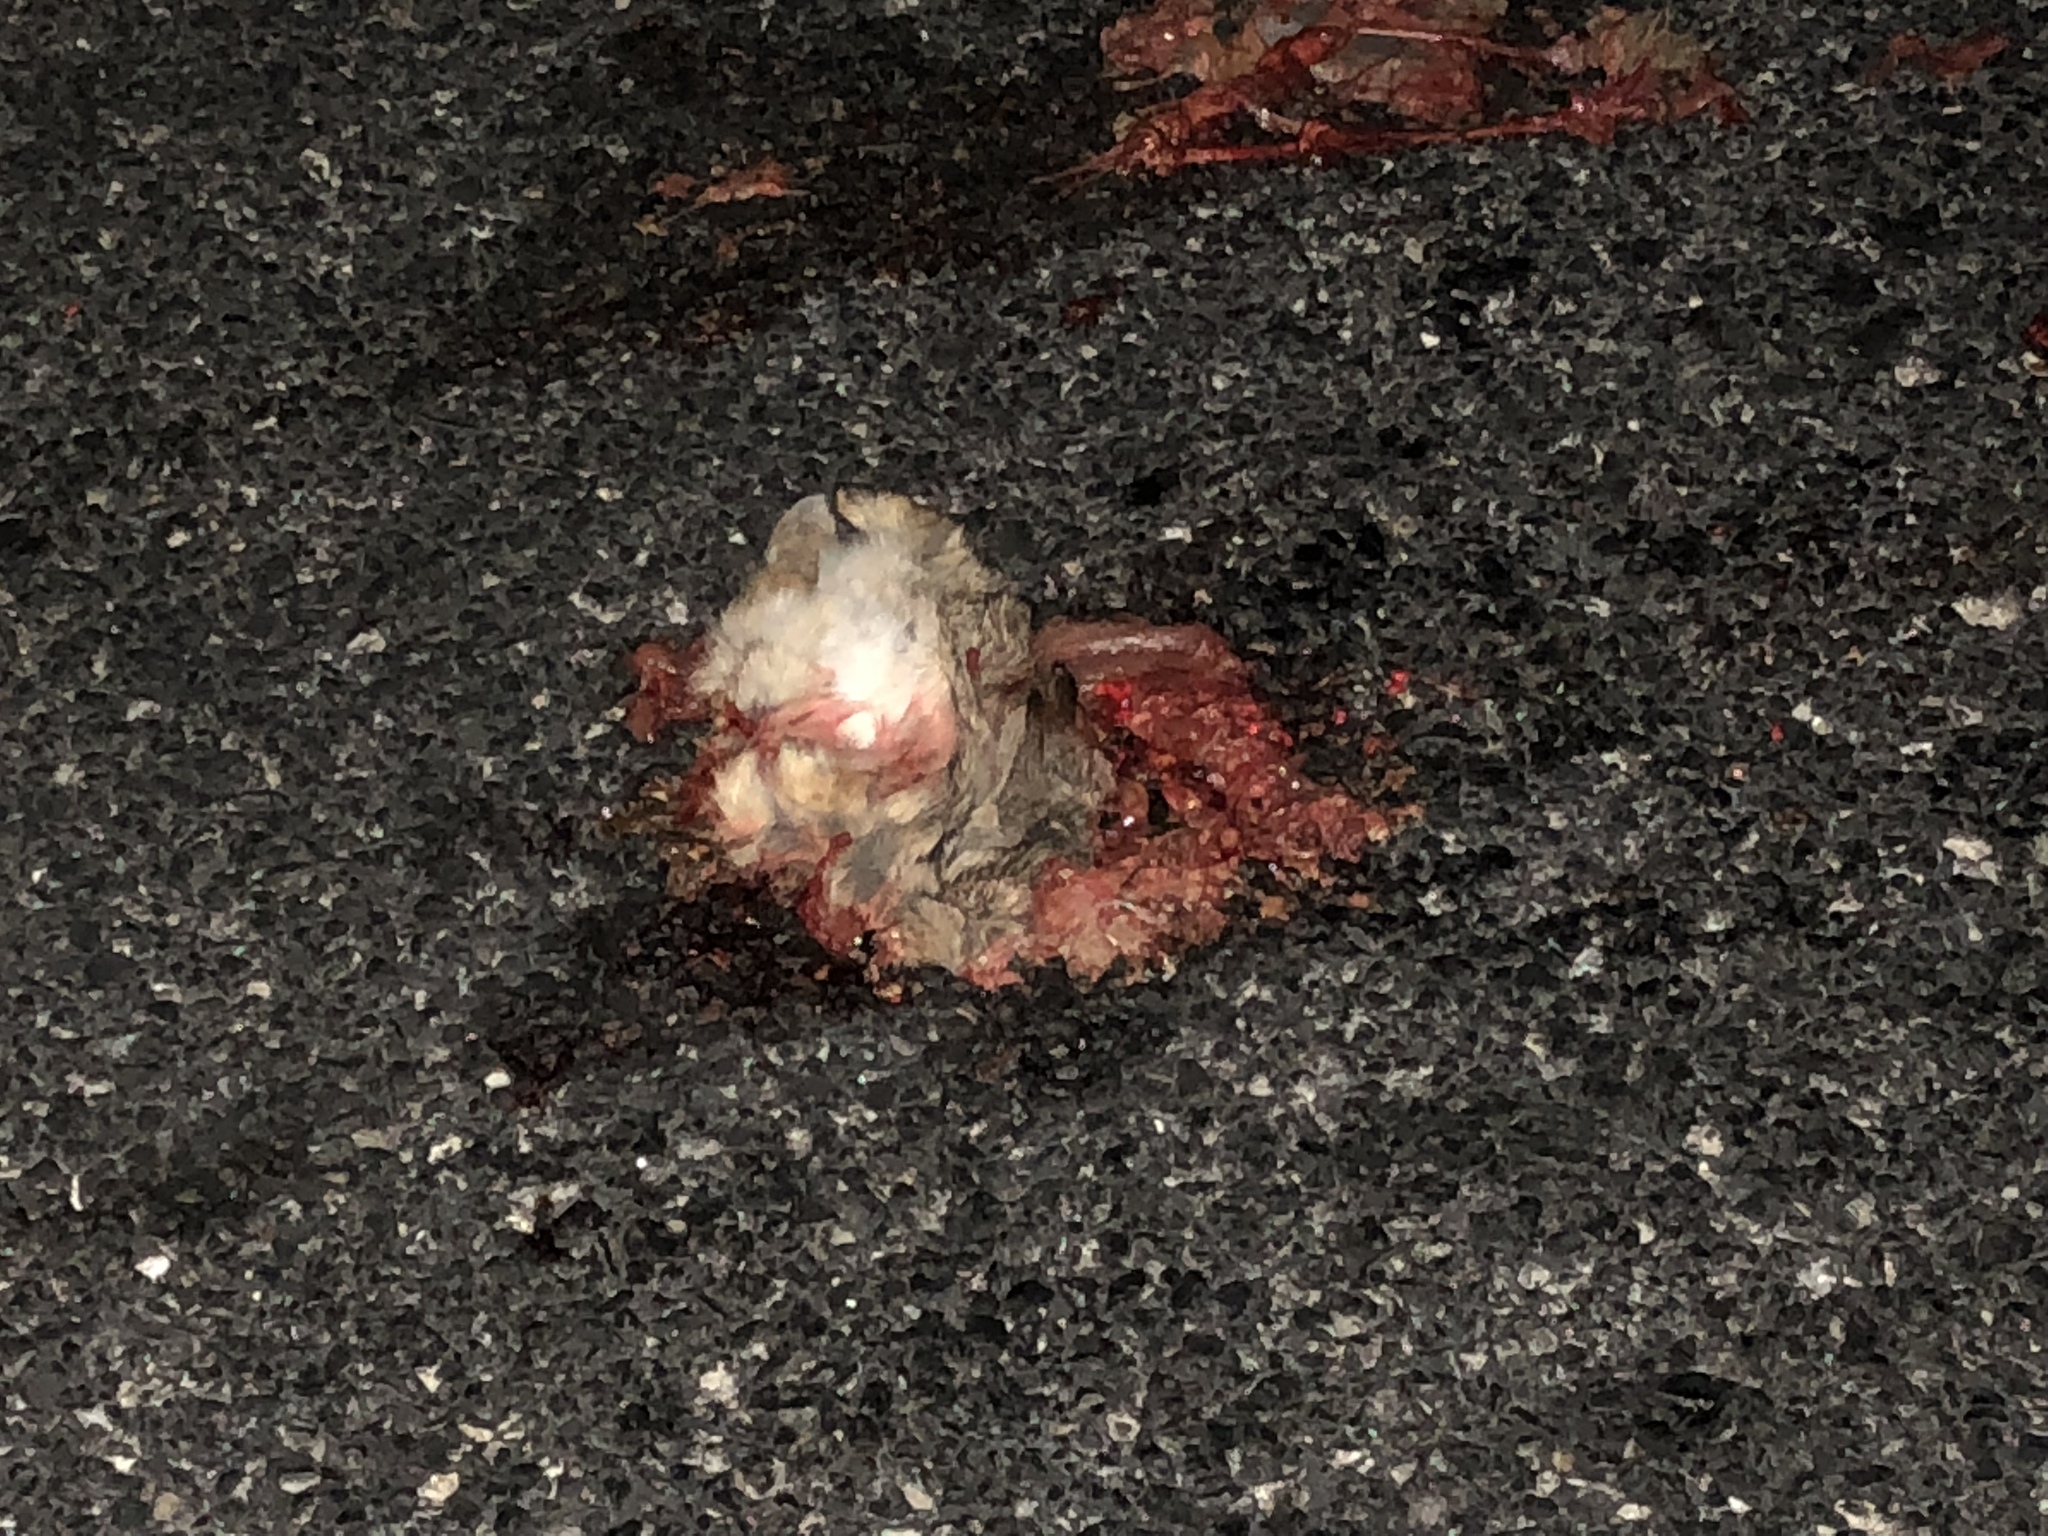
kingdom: Animalia
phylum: Chordata
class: Squamata
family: Viperidae
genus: Crotalus
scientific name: Crotalus atrox
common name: Western diamond-backed rattlesnake
